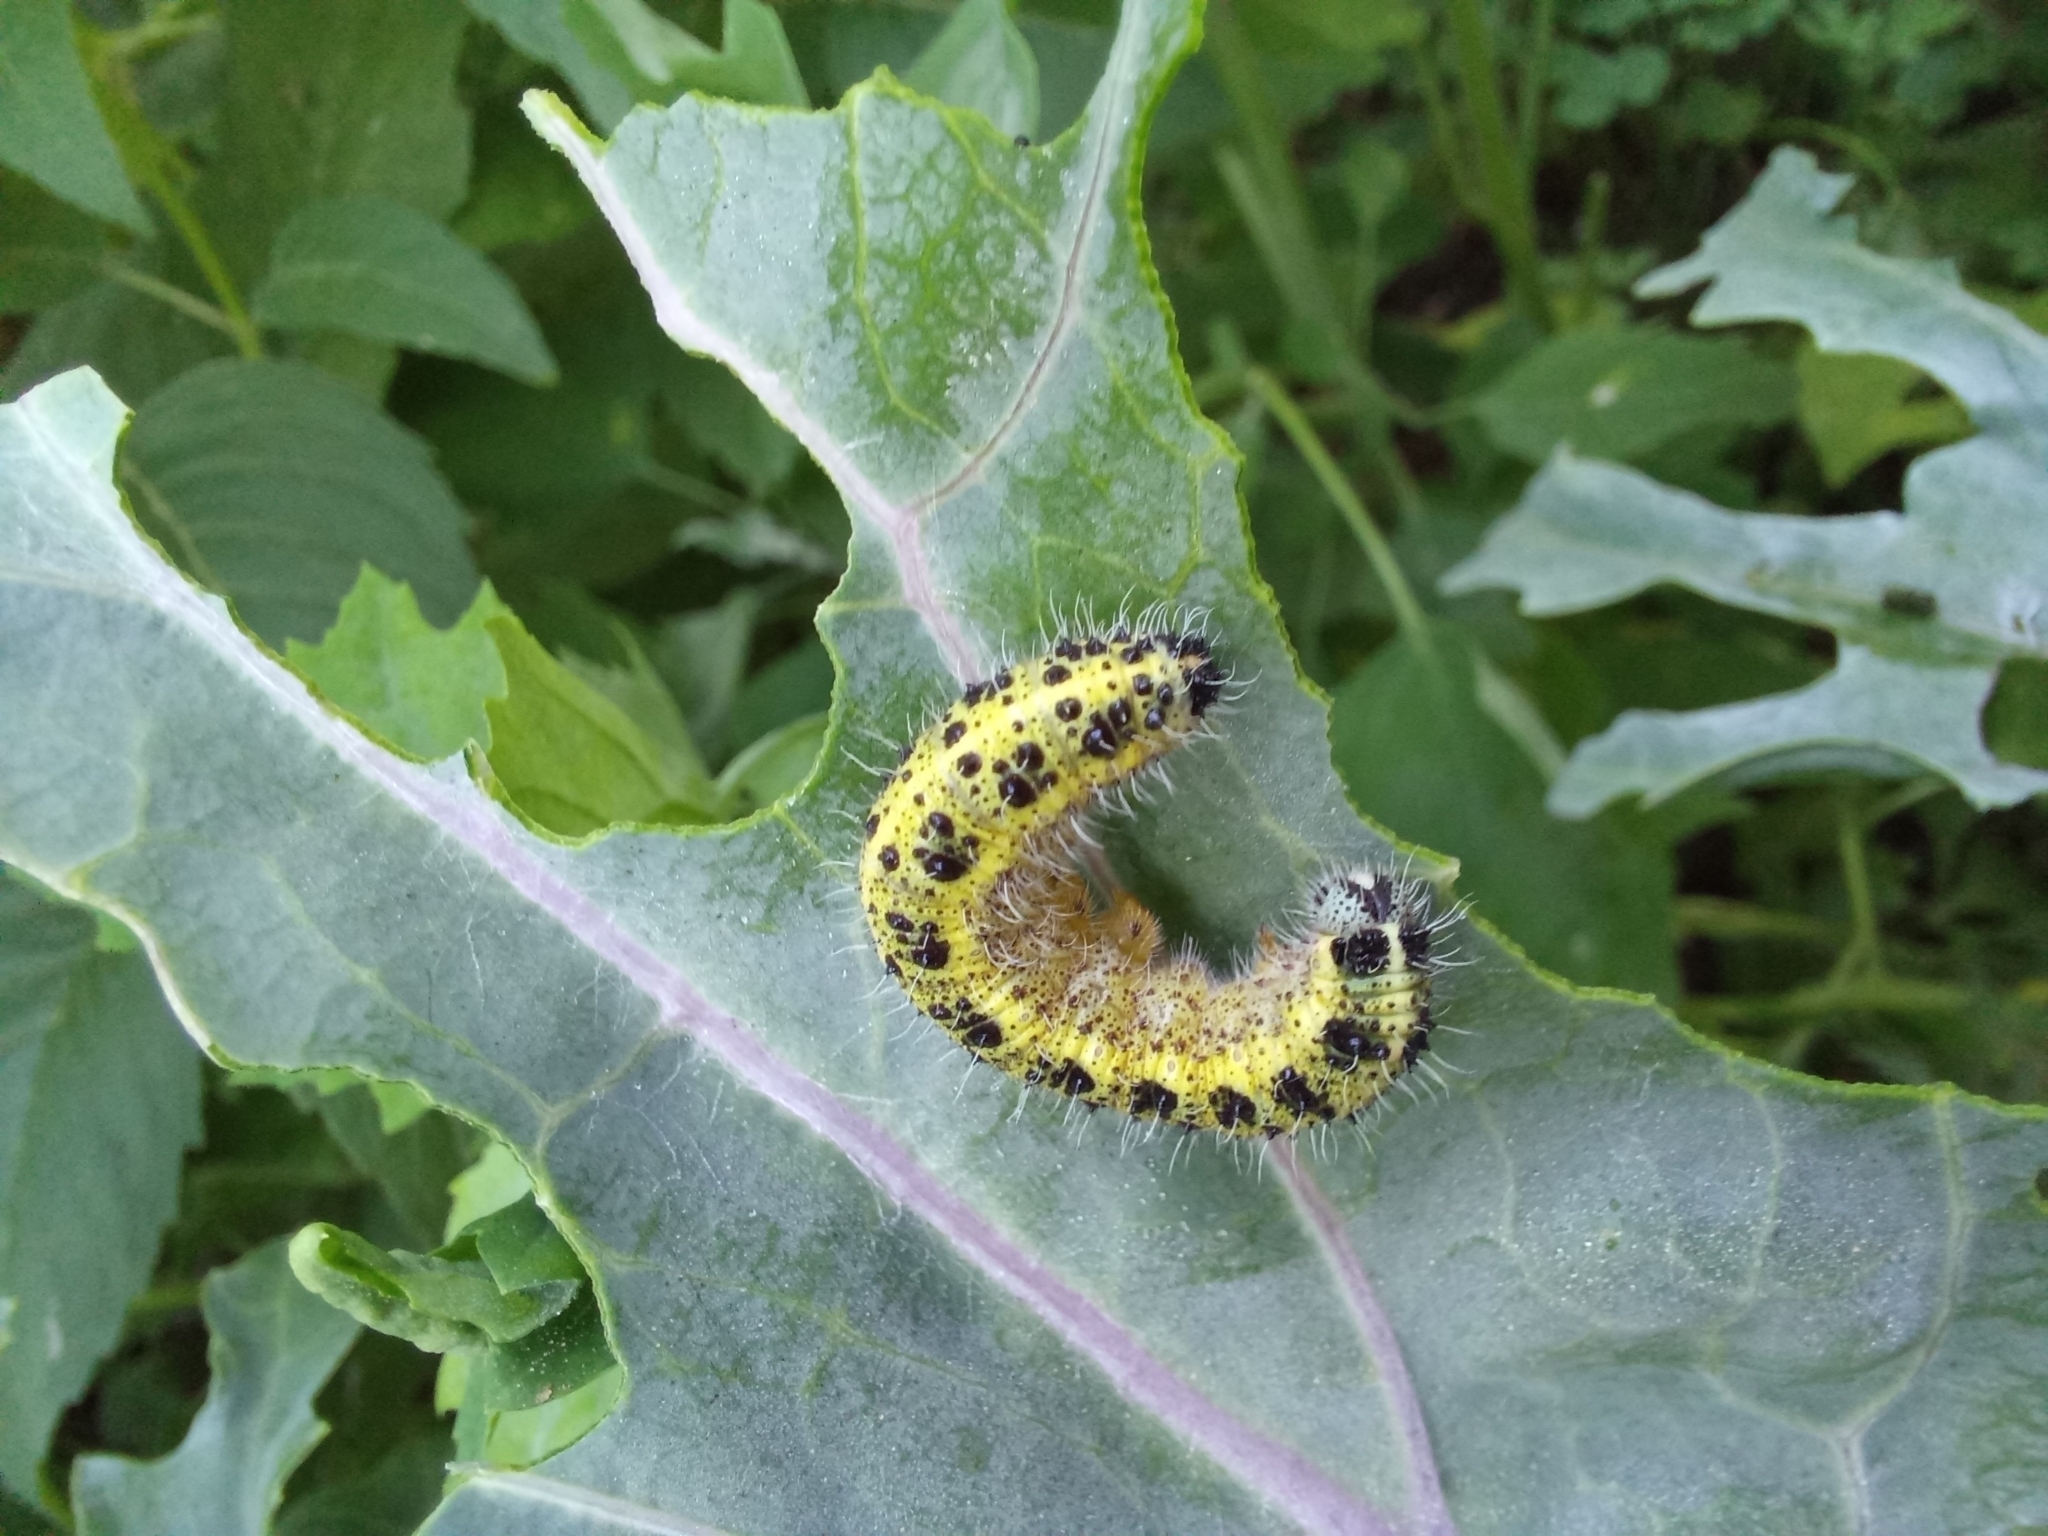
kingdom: Animalia
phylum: Arthropoda
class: Insecta
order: Lepidoptera
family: Pieridae
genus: Pieris
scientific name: Pieris brassicae
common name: Large white
